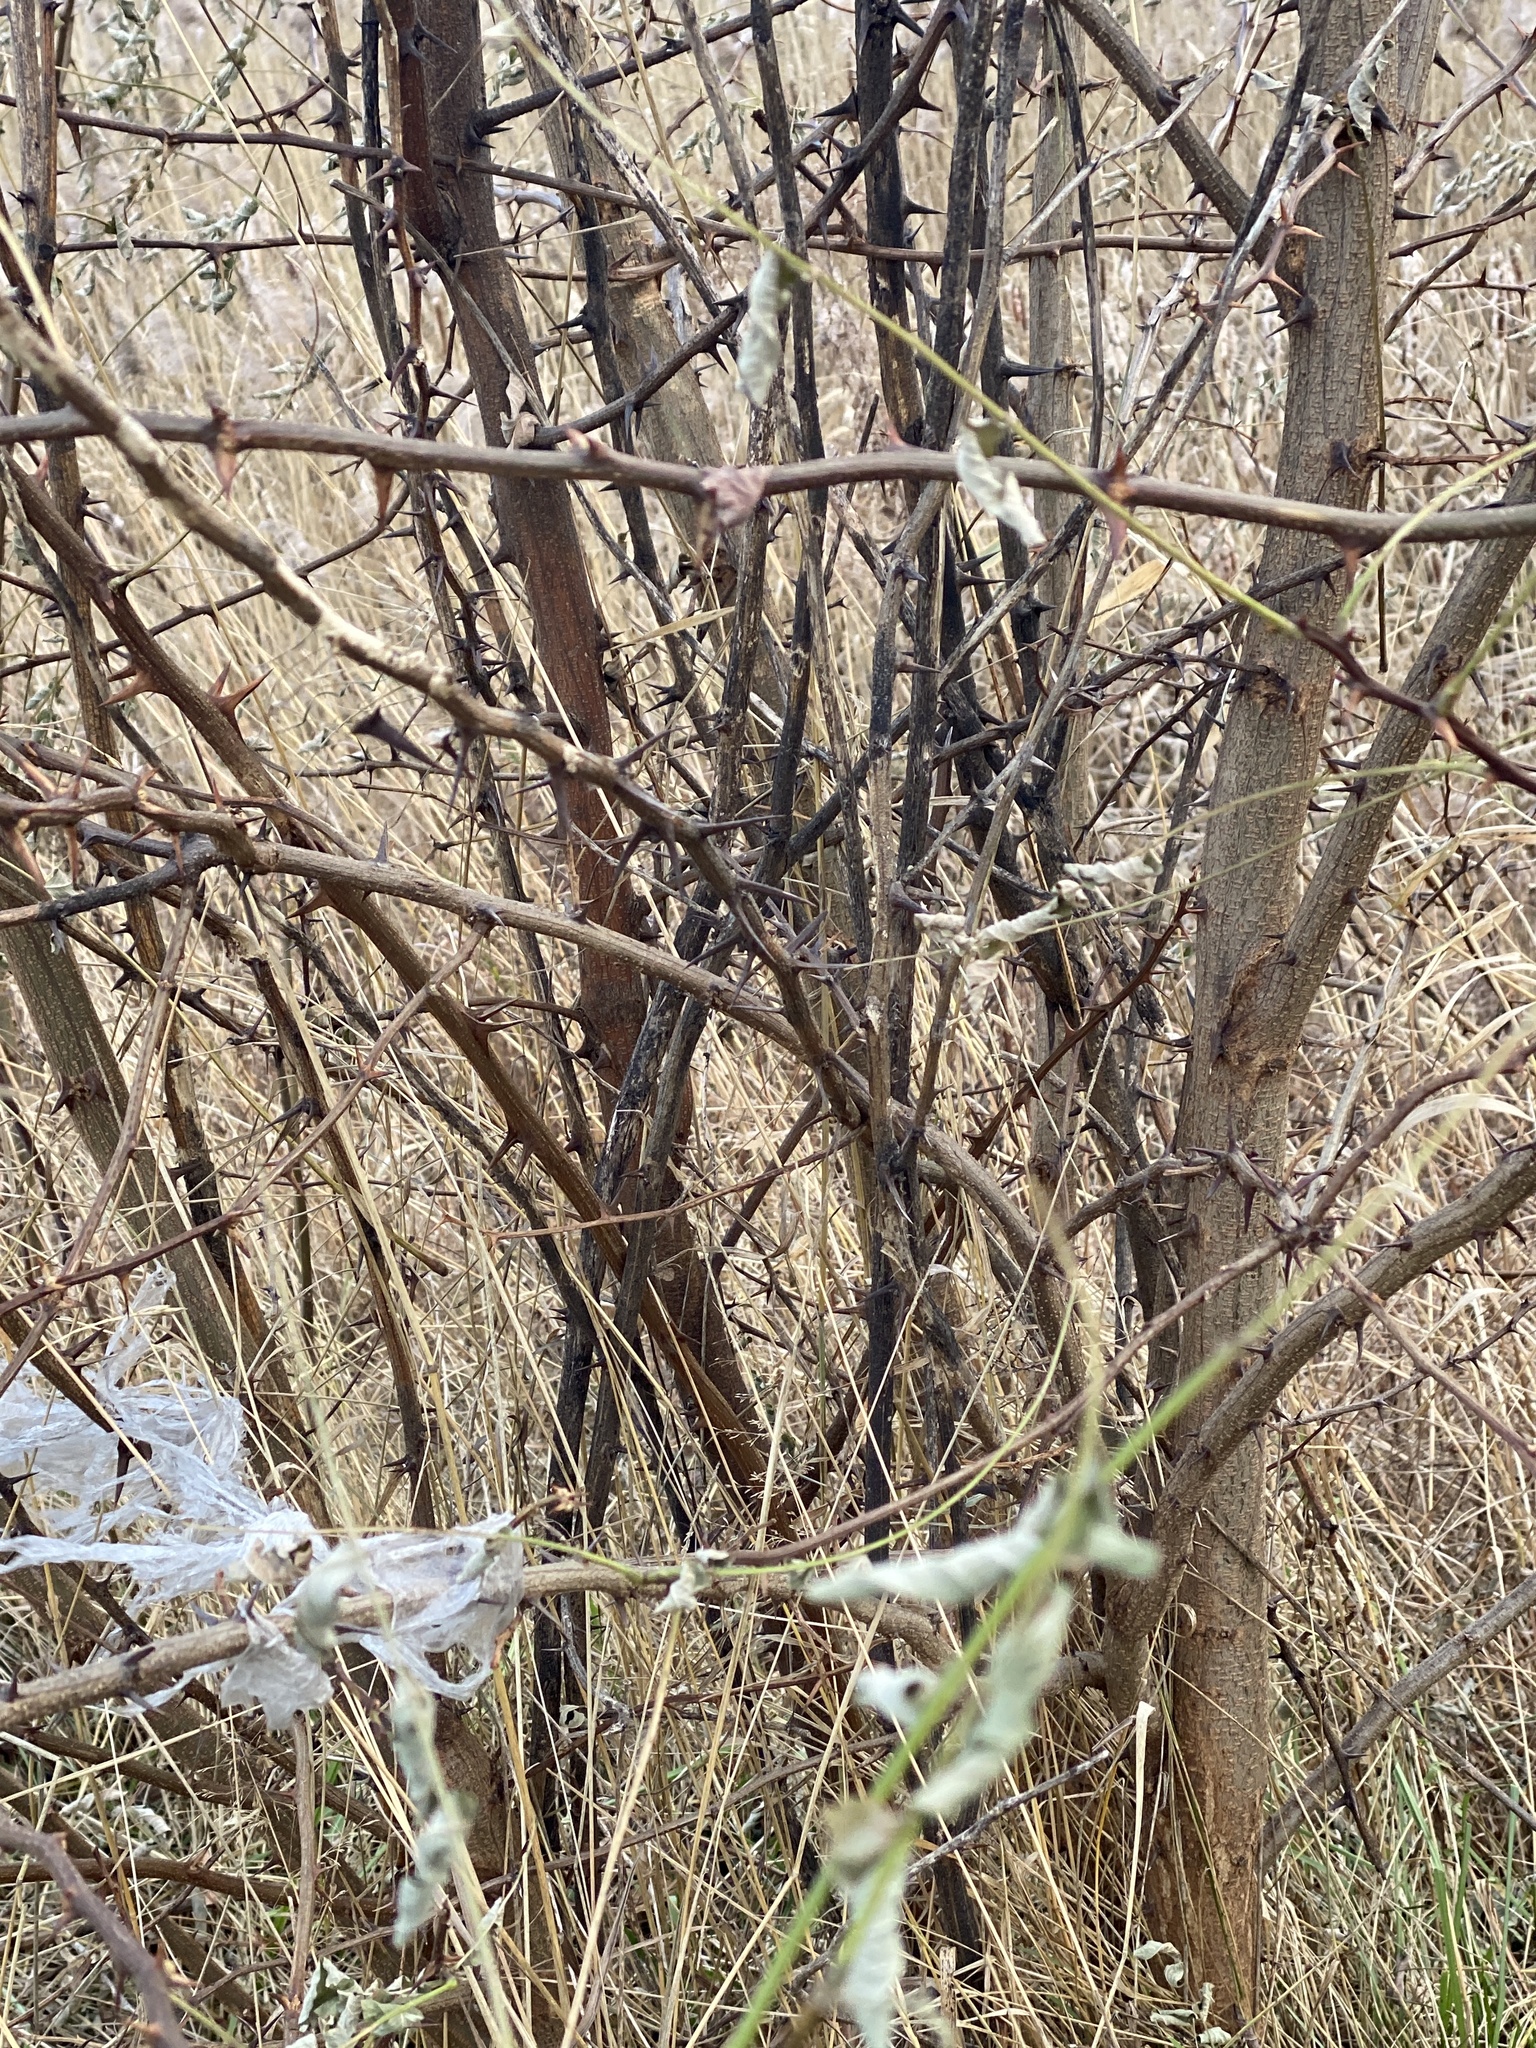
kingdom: Plantae
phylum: Tracheophyta
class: Magnoliopsida
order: Fabales
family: Fabaceae
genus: Robinia
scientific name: Robinia pseudoacacia
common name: Black locust
